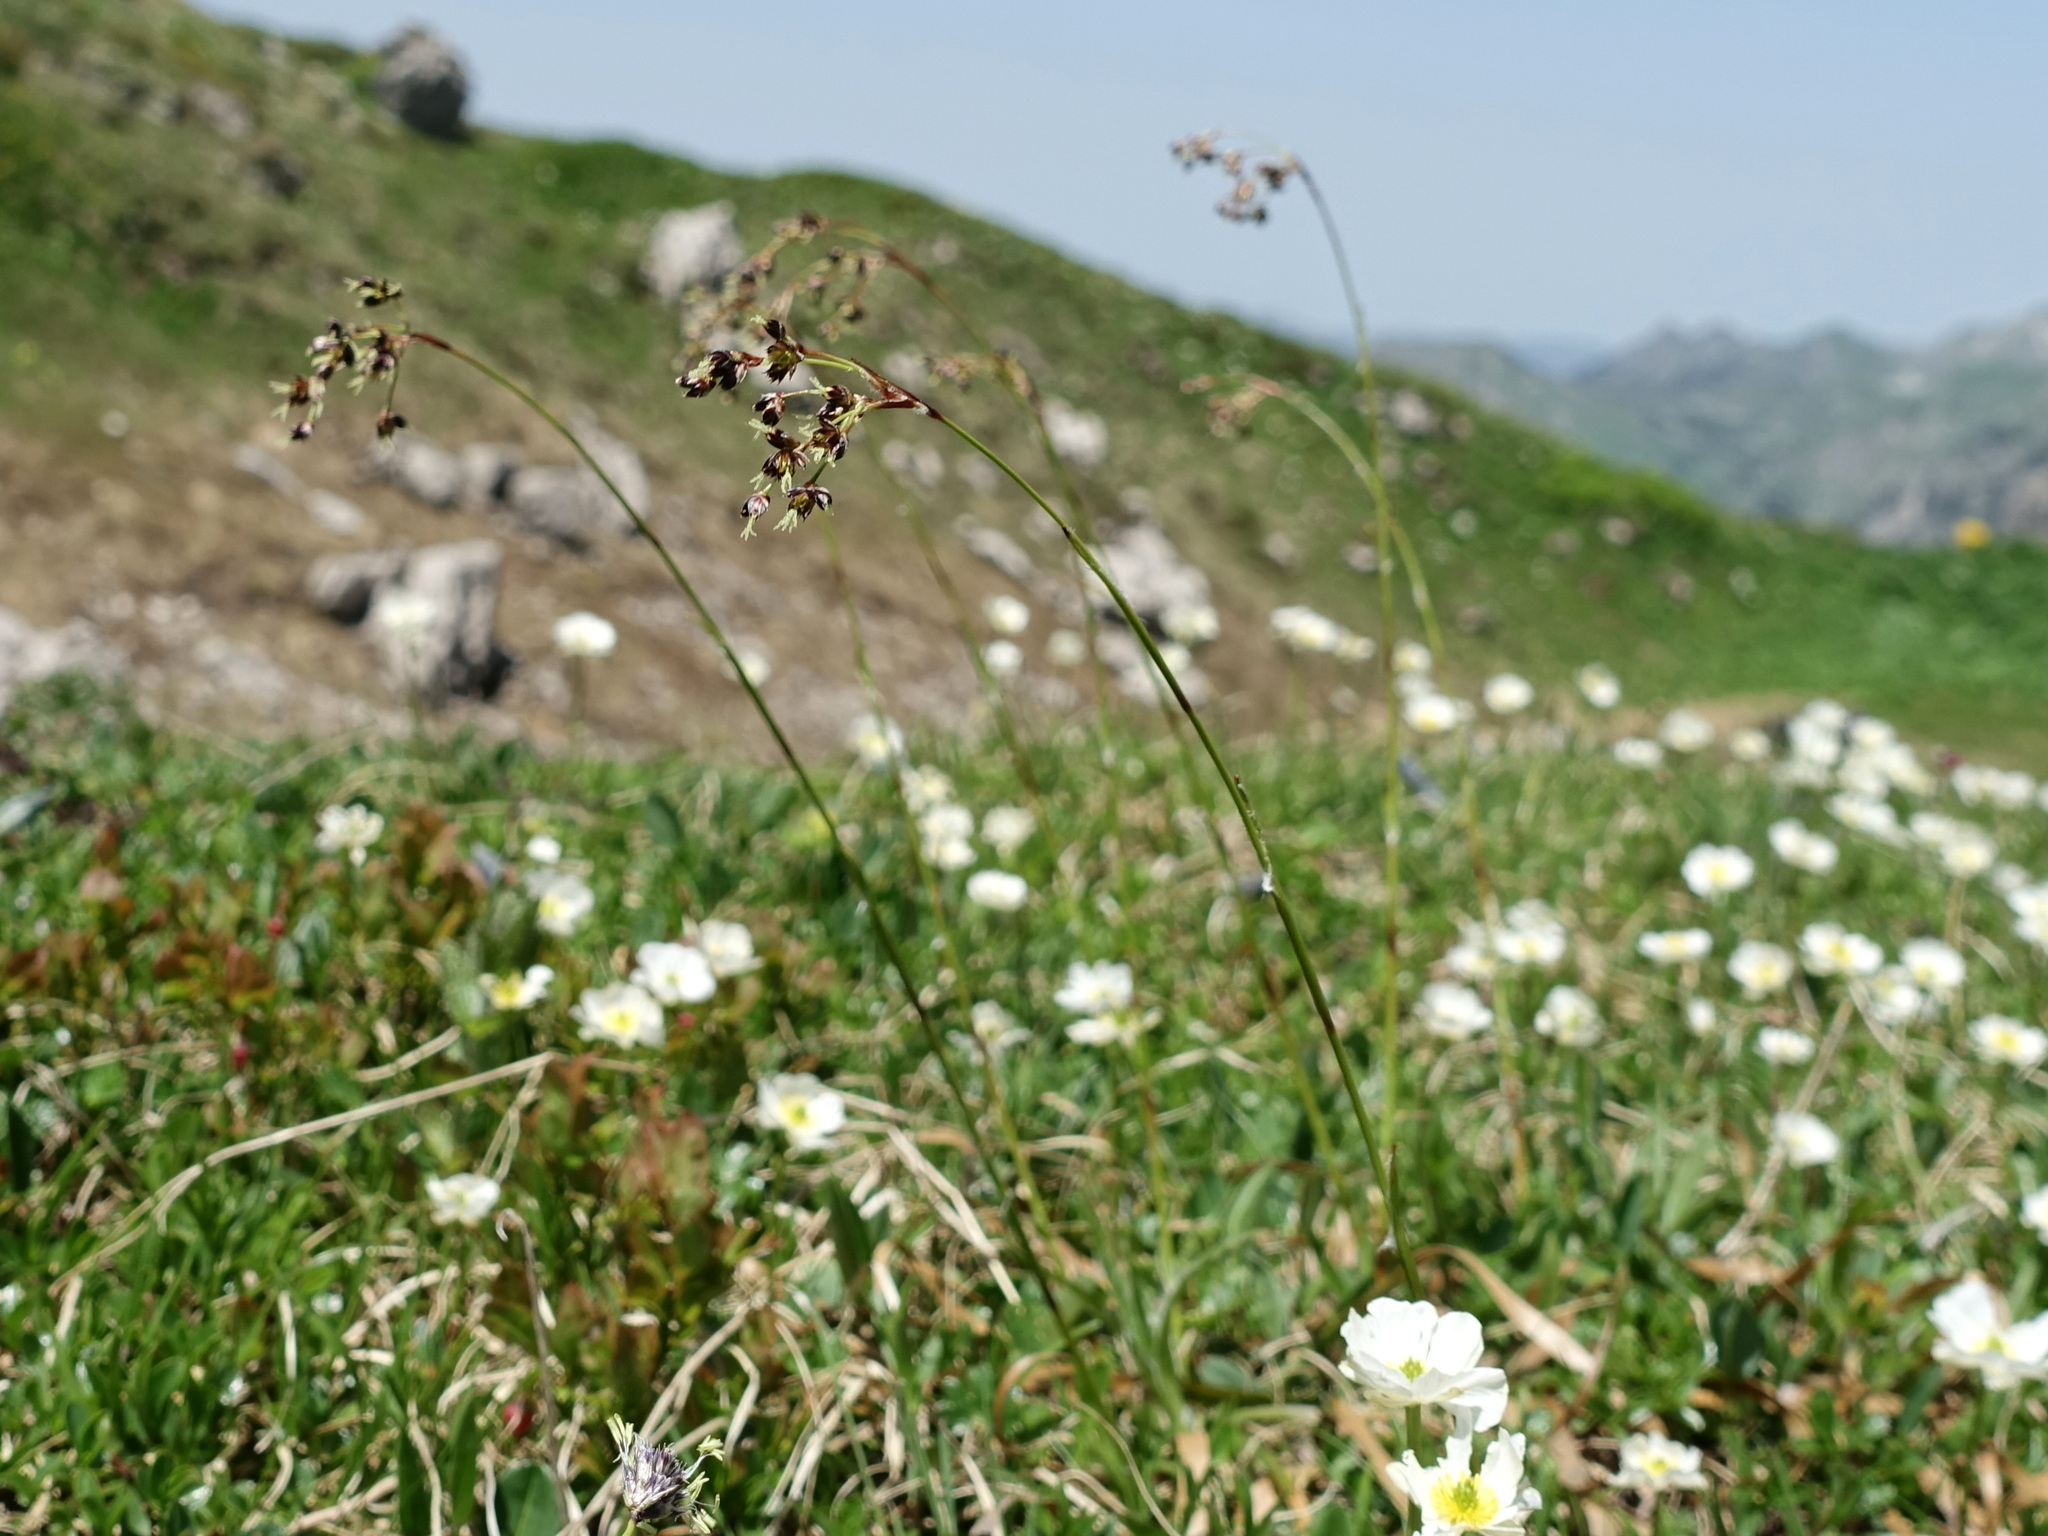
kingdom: Plantae
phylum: Tracheophyta
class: Liliopsida
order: Poales
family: Juncaceae
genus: Luzula
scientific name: Luzula sylvatica
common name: Great wood-rush
